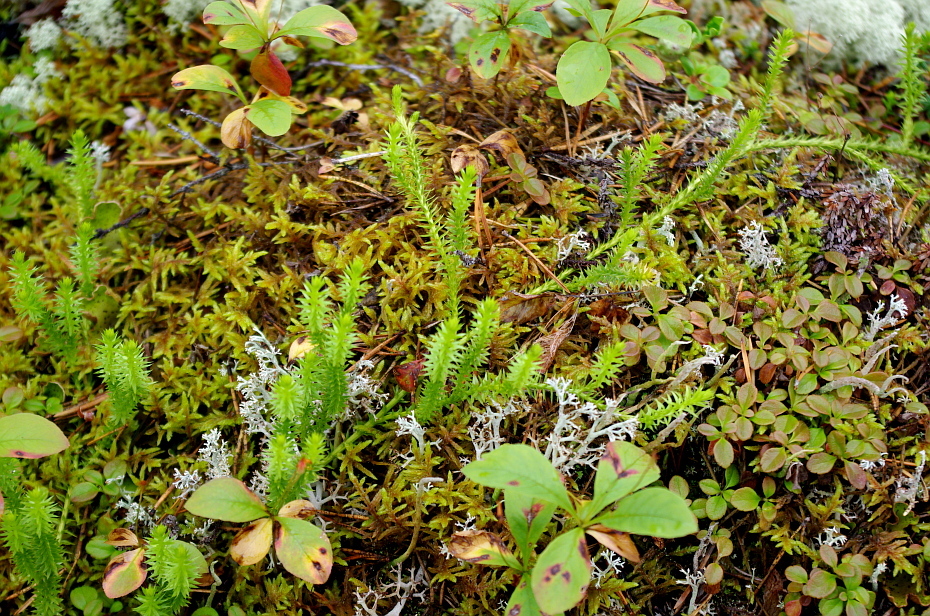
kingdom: Plantae
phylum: Tracheophyta
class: Lycopodiopsida
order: Lycopodiales
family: Lycopodiaceae
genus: Spinulum
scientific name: Spinulum annotinum
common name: Interrupted club-moss
